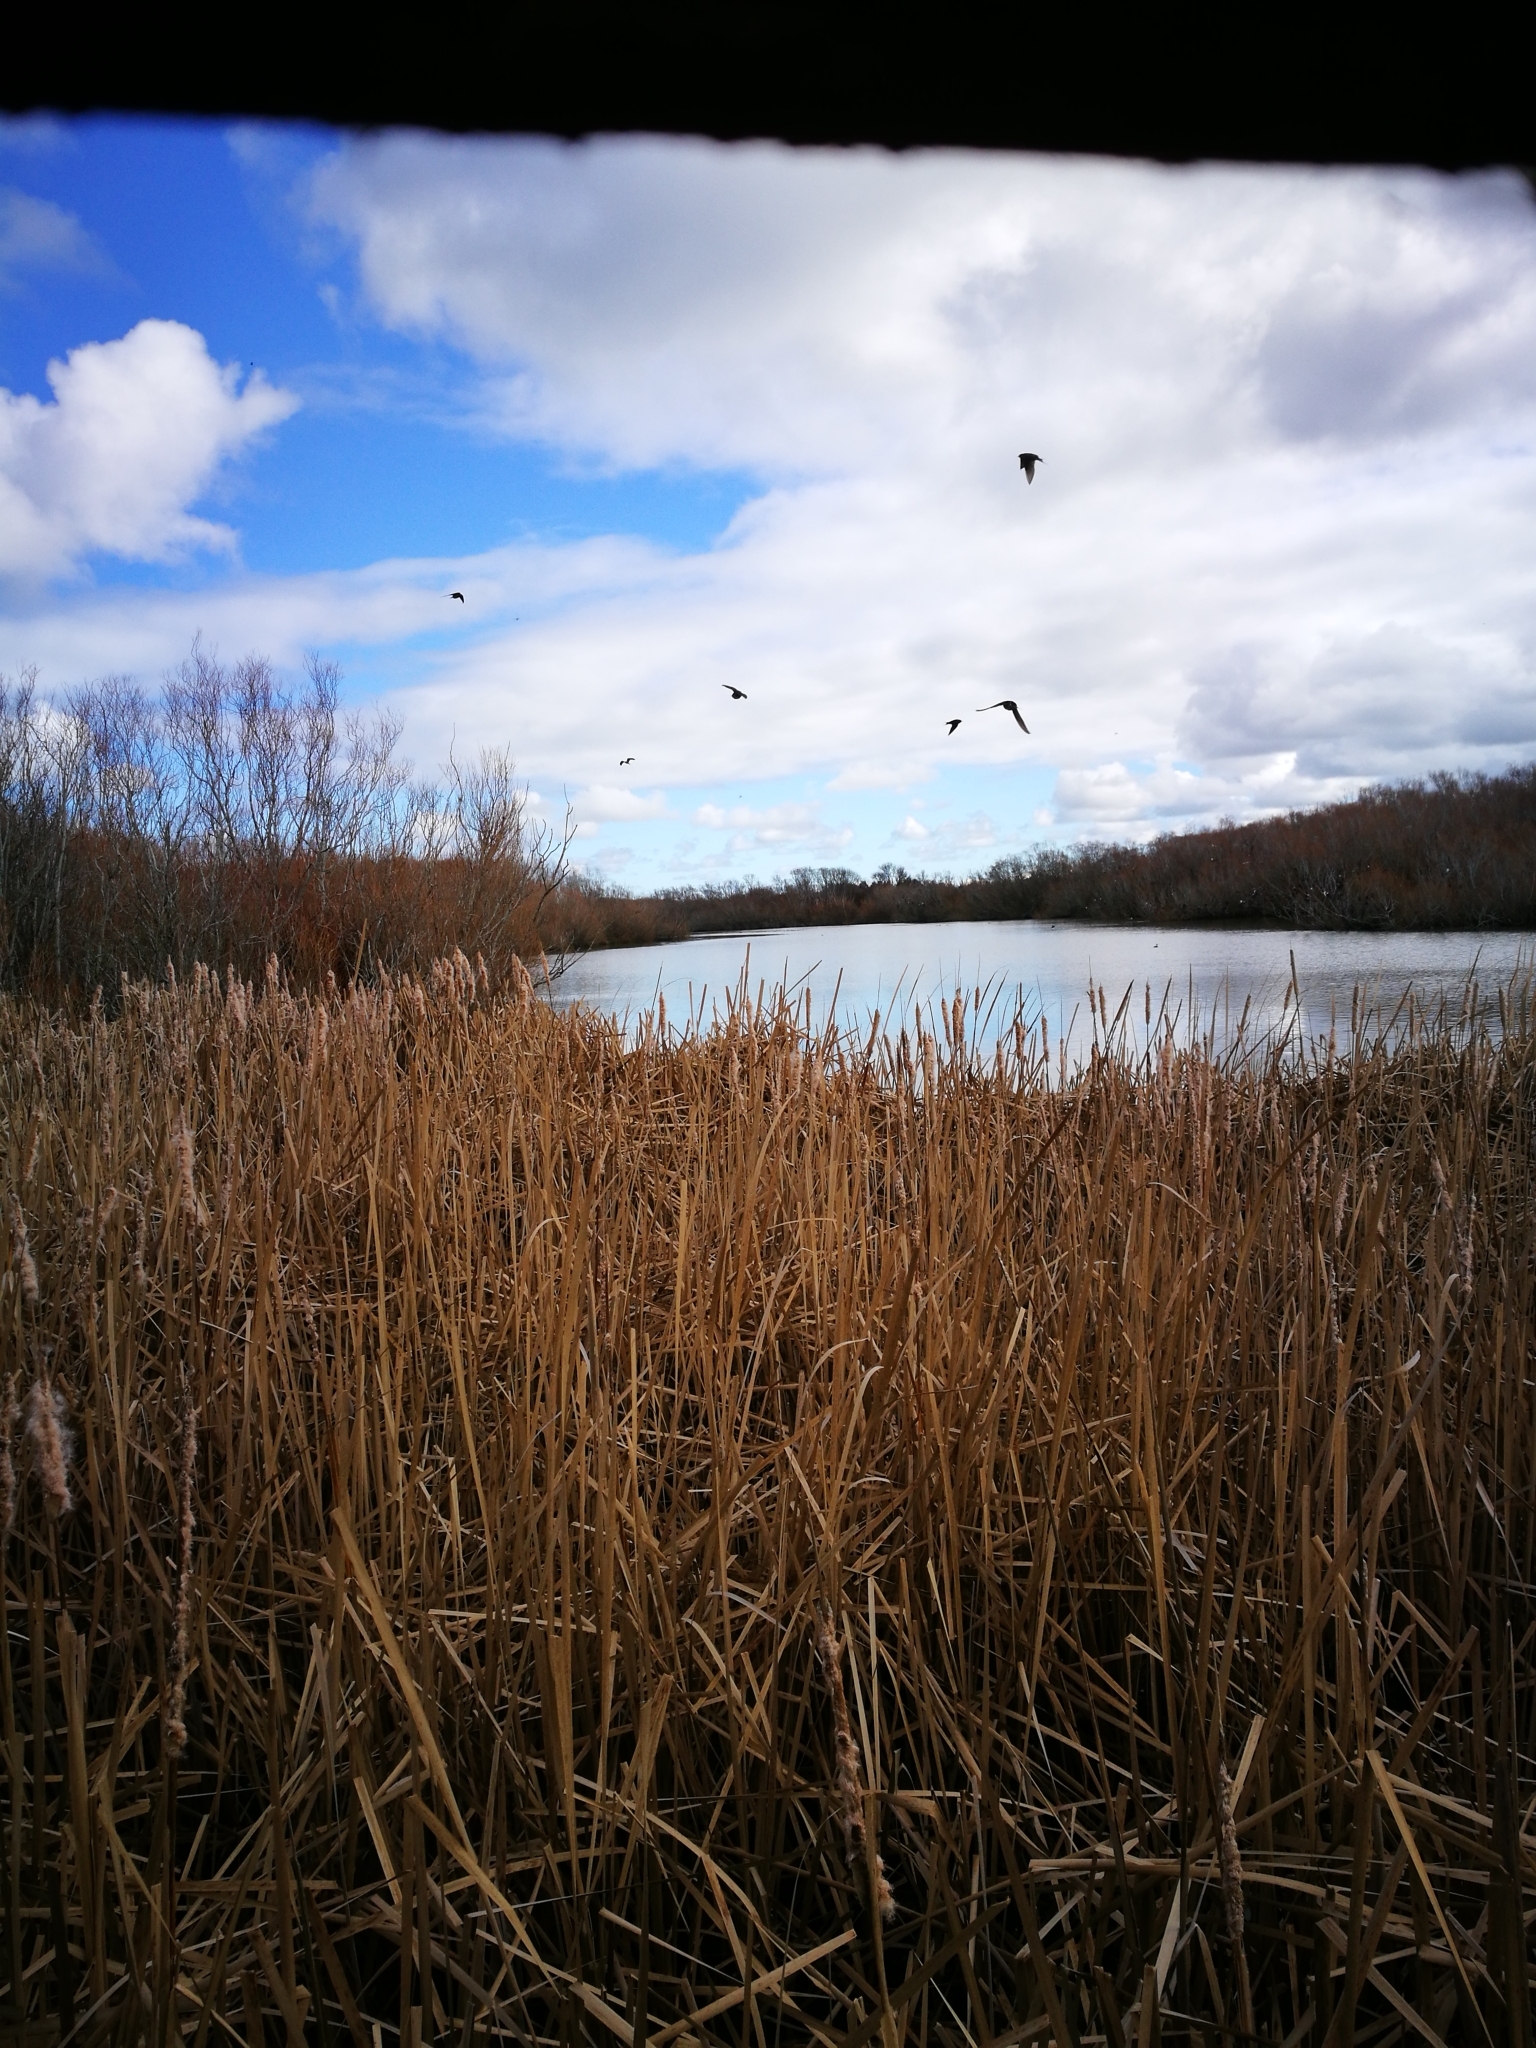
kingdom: Animalia
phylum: Chordata
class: Aves
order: Passeriformes
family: Hirundinidae
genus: Hirundo
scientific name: Hirundo neoxena
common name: Welcome swallow
